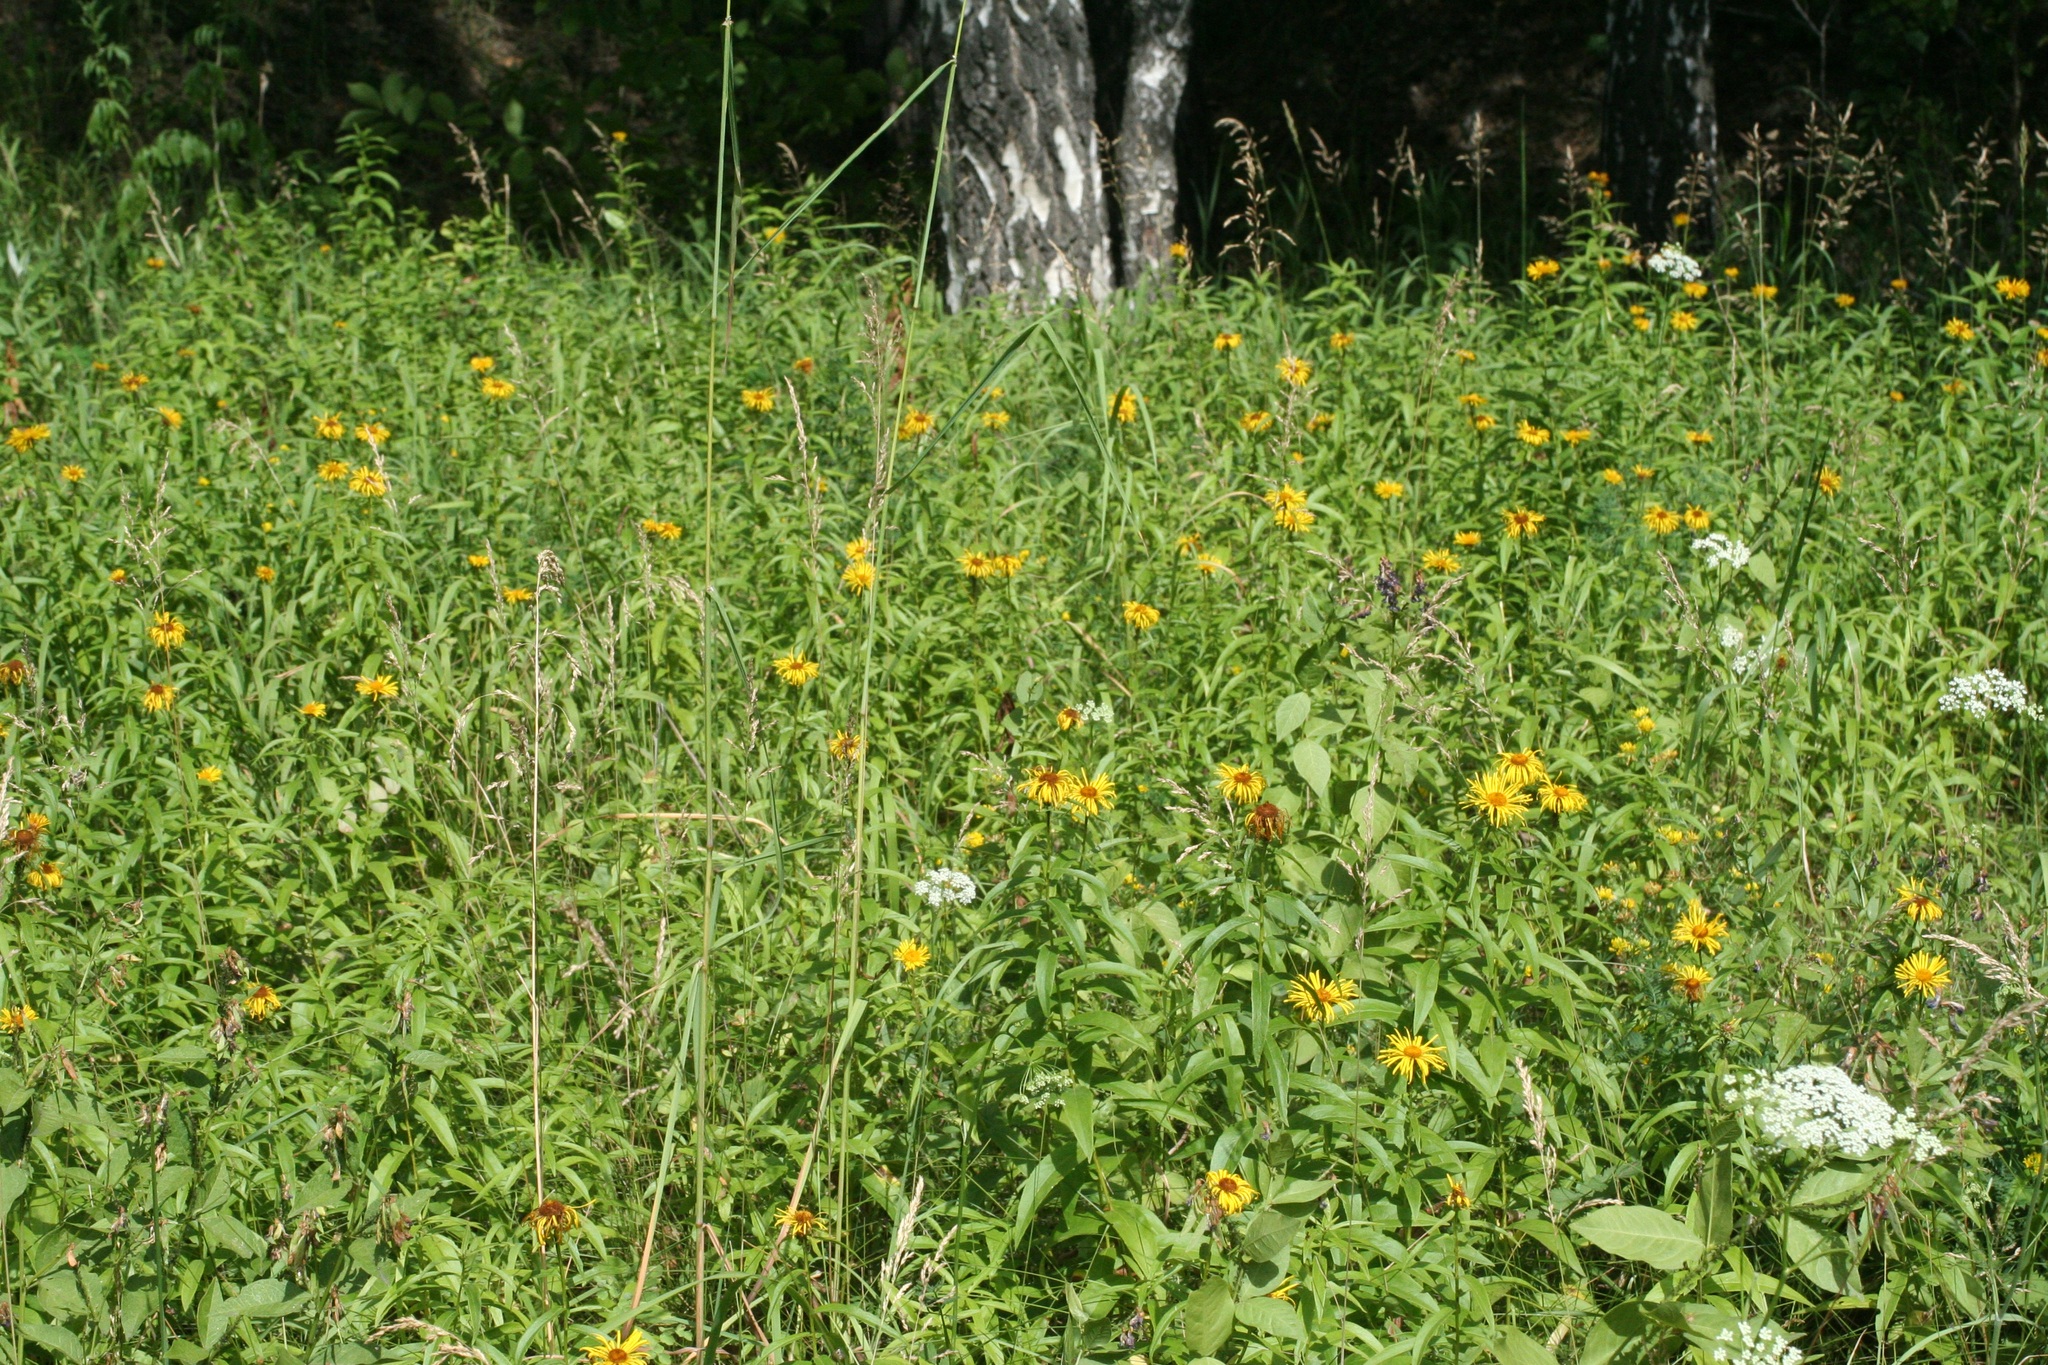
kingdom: Plantae
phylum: Tracheophyta
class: Magnoliopsida
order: Asterales
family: Asteraceae
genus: Pentanema
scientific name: Pentanema salicinum
